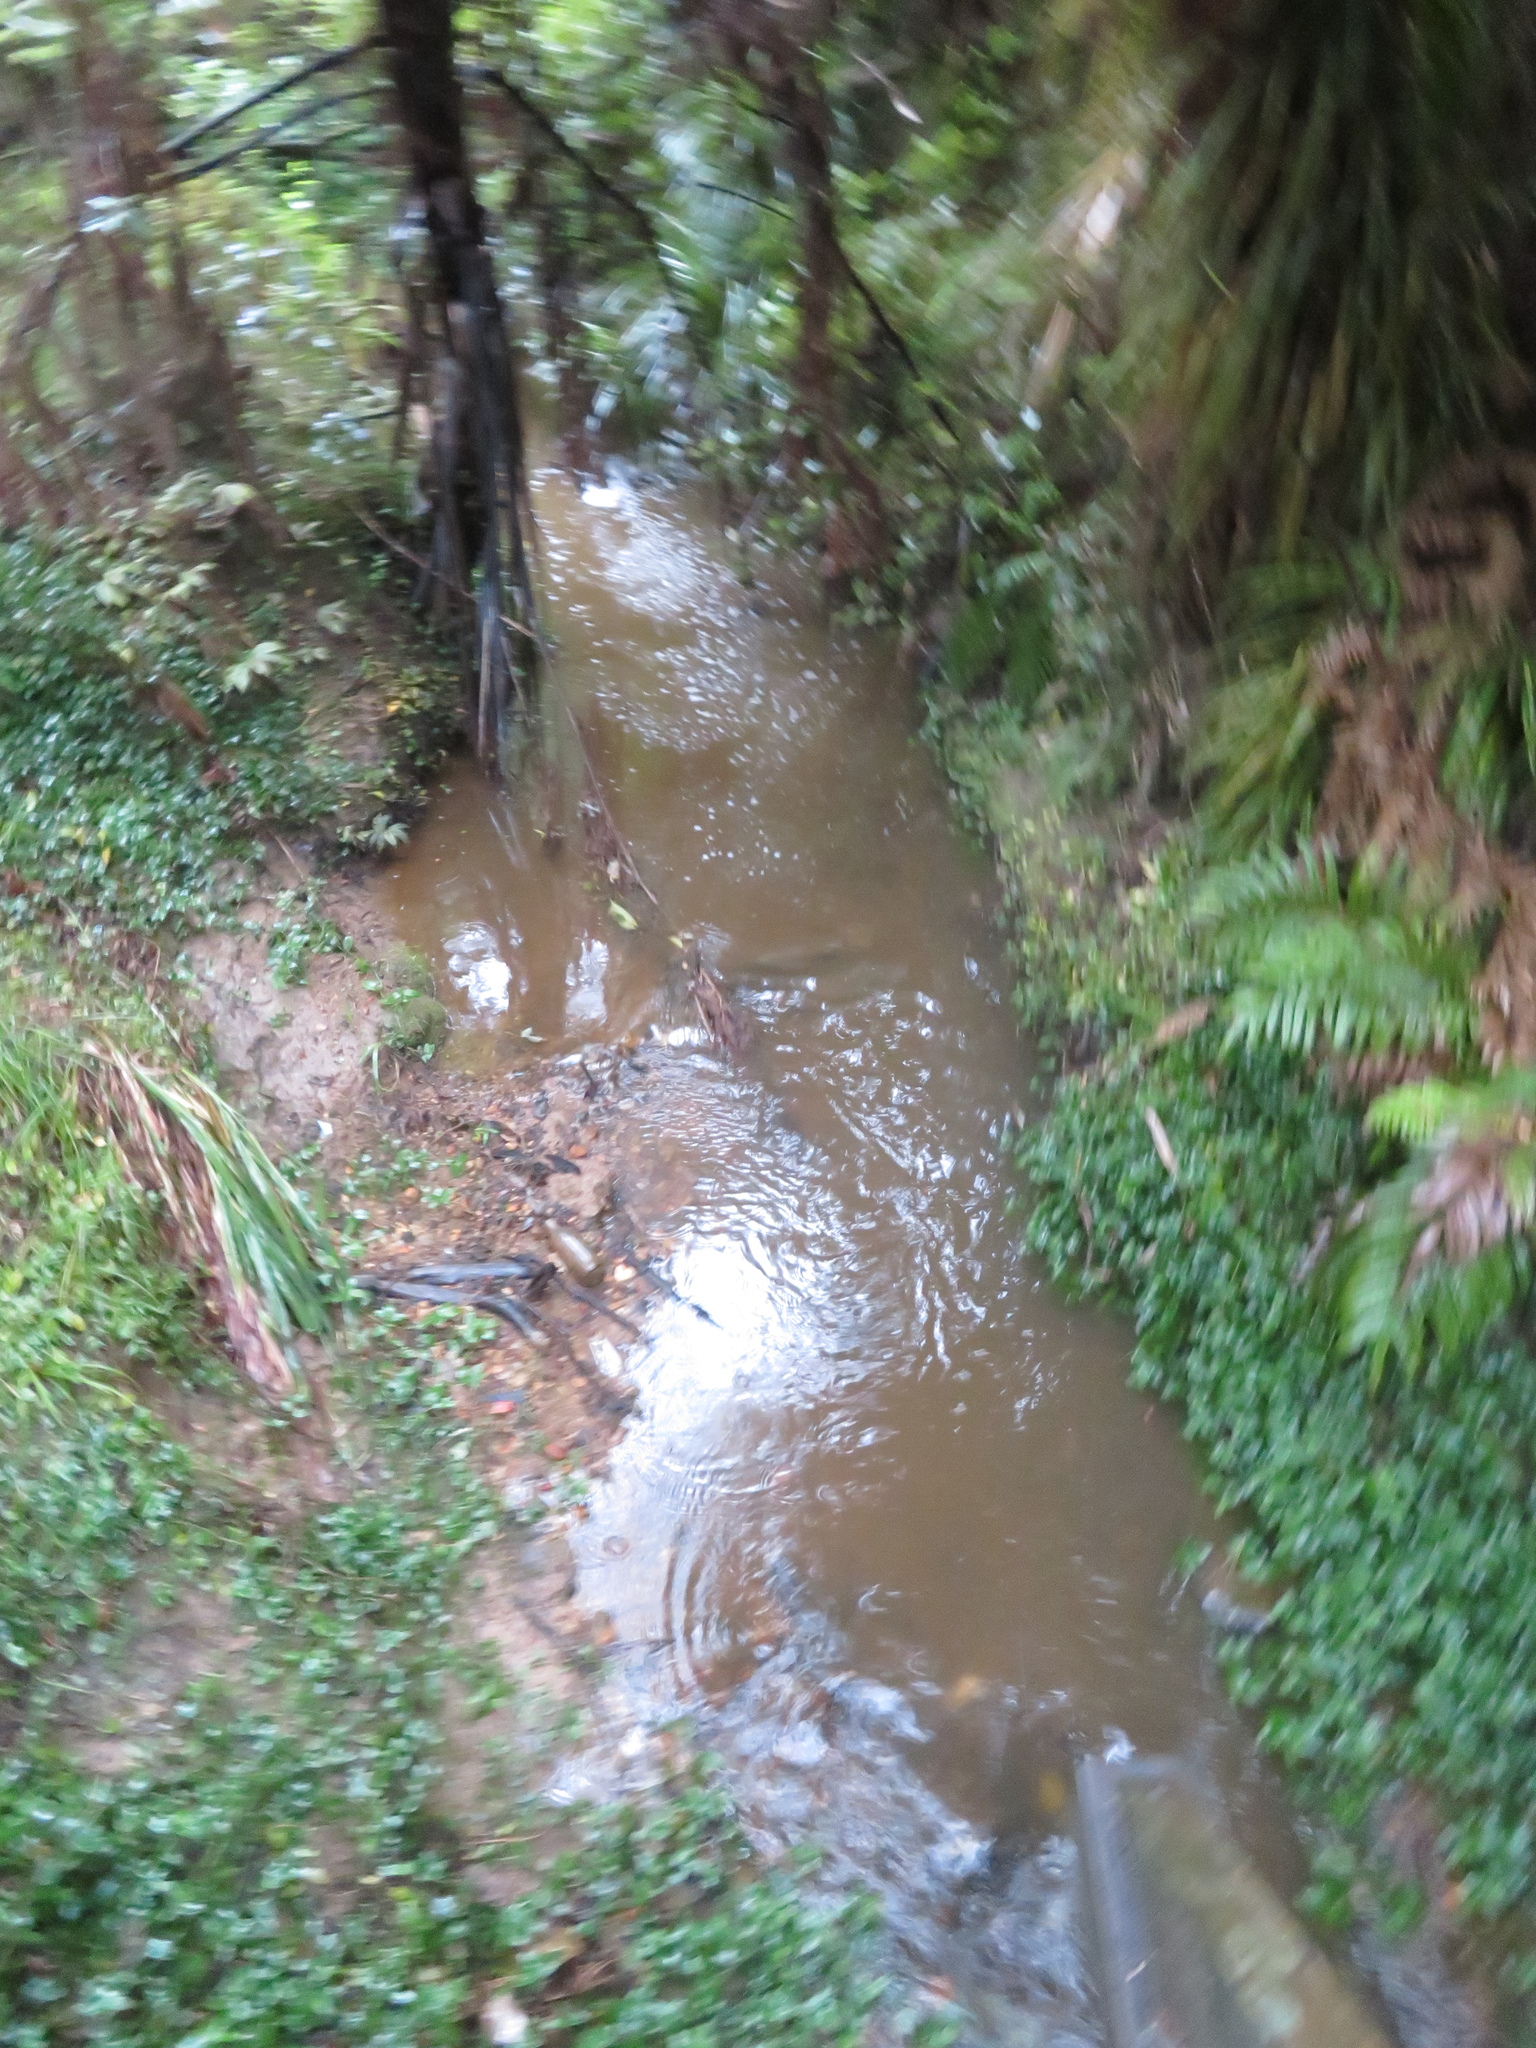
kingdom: Plantae
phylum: Tracheophyta
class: Liliopsida
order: Commelinales
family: Commelinaceae
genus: Tradescantia
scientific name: Tradescantia fluminensis
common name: Wandering-jew
